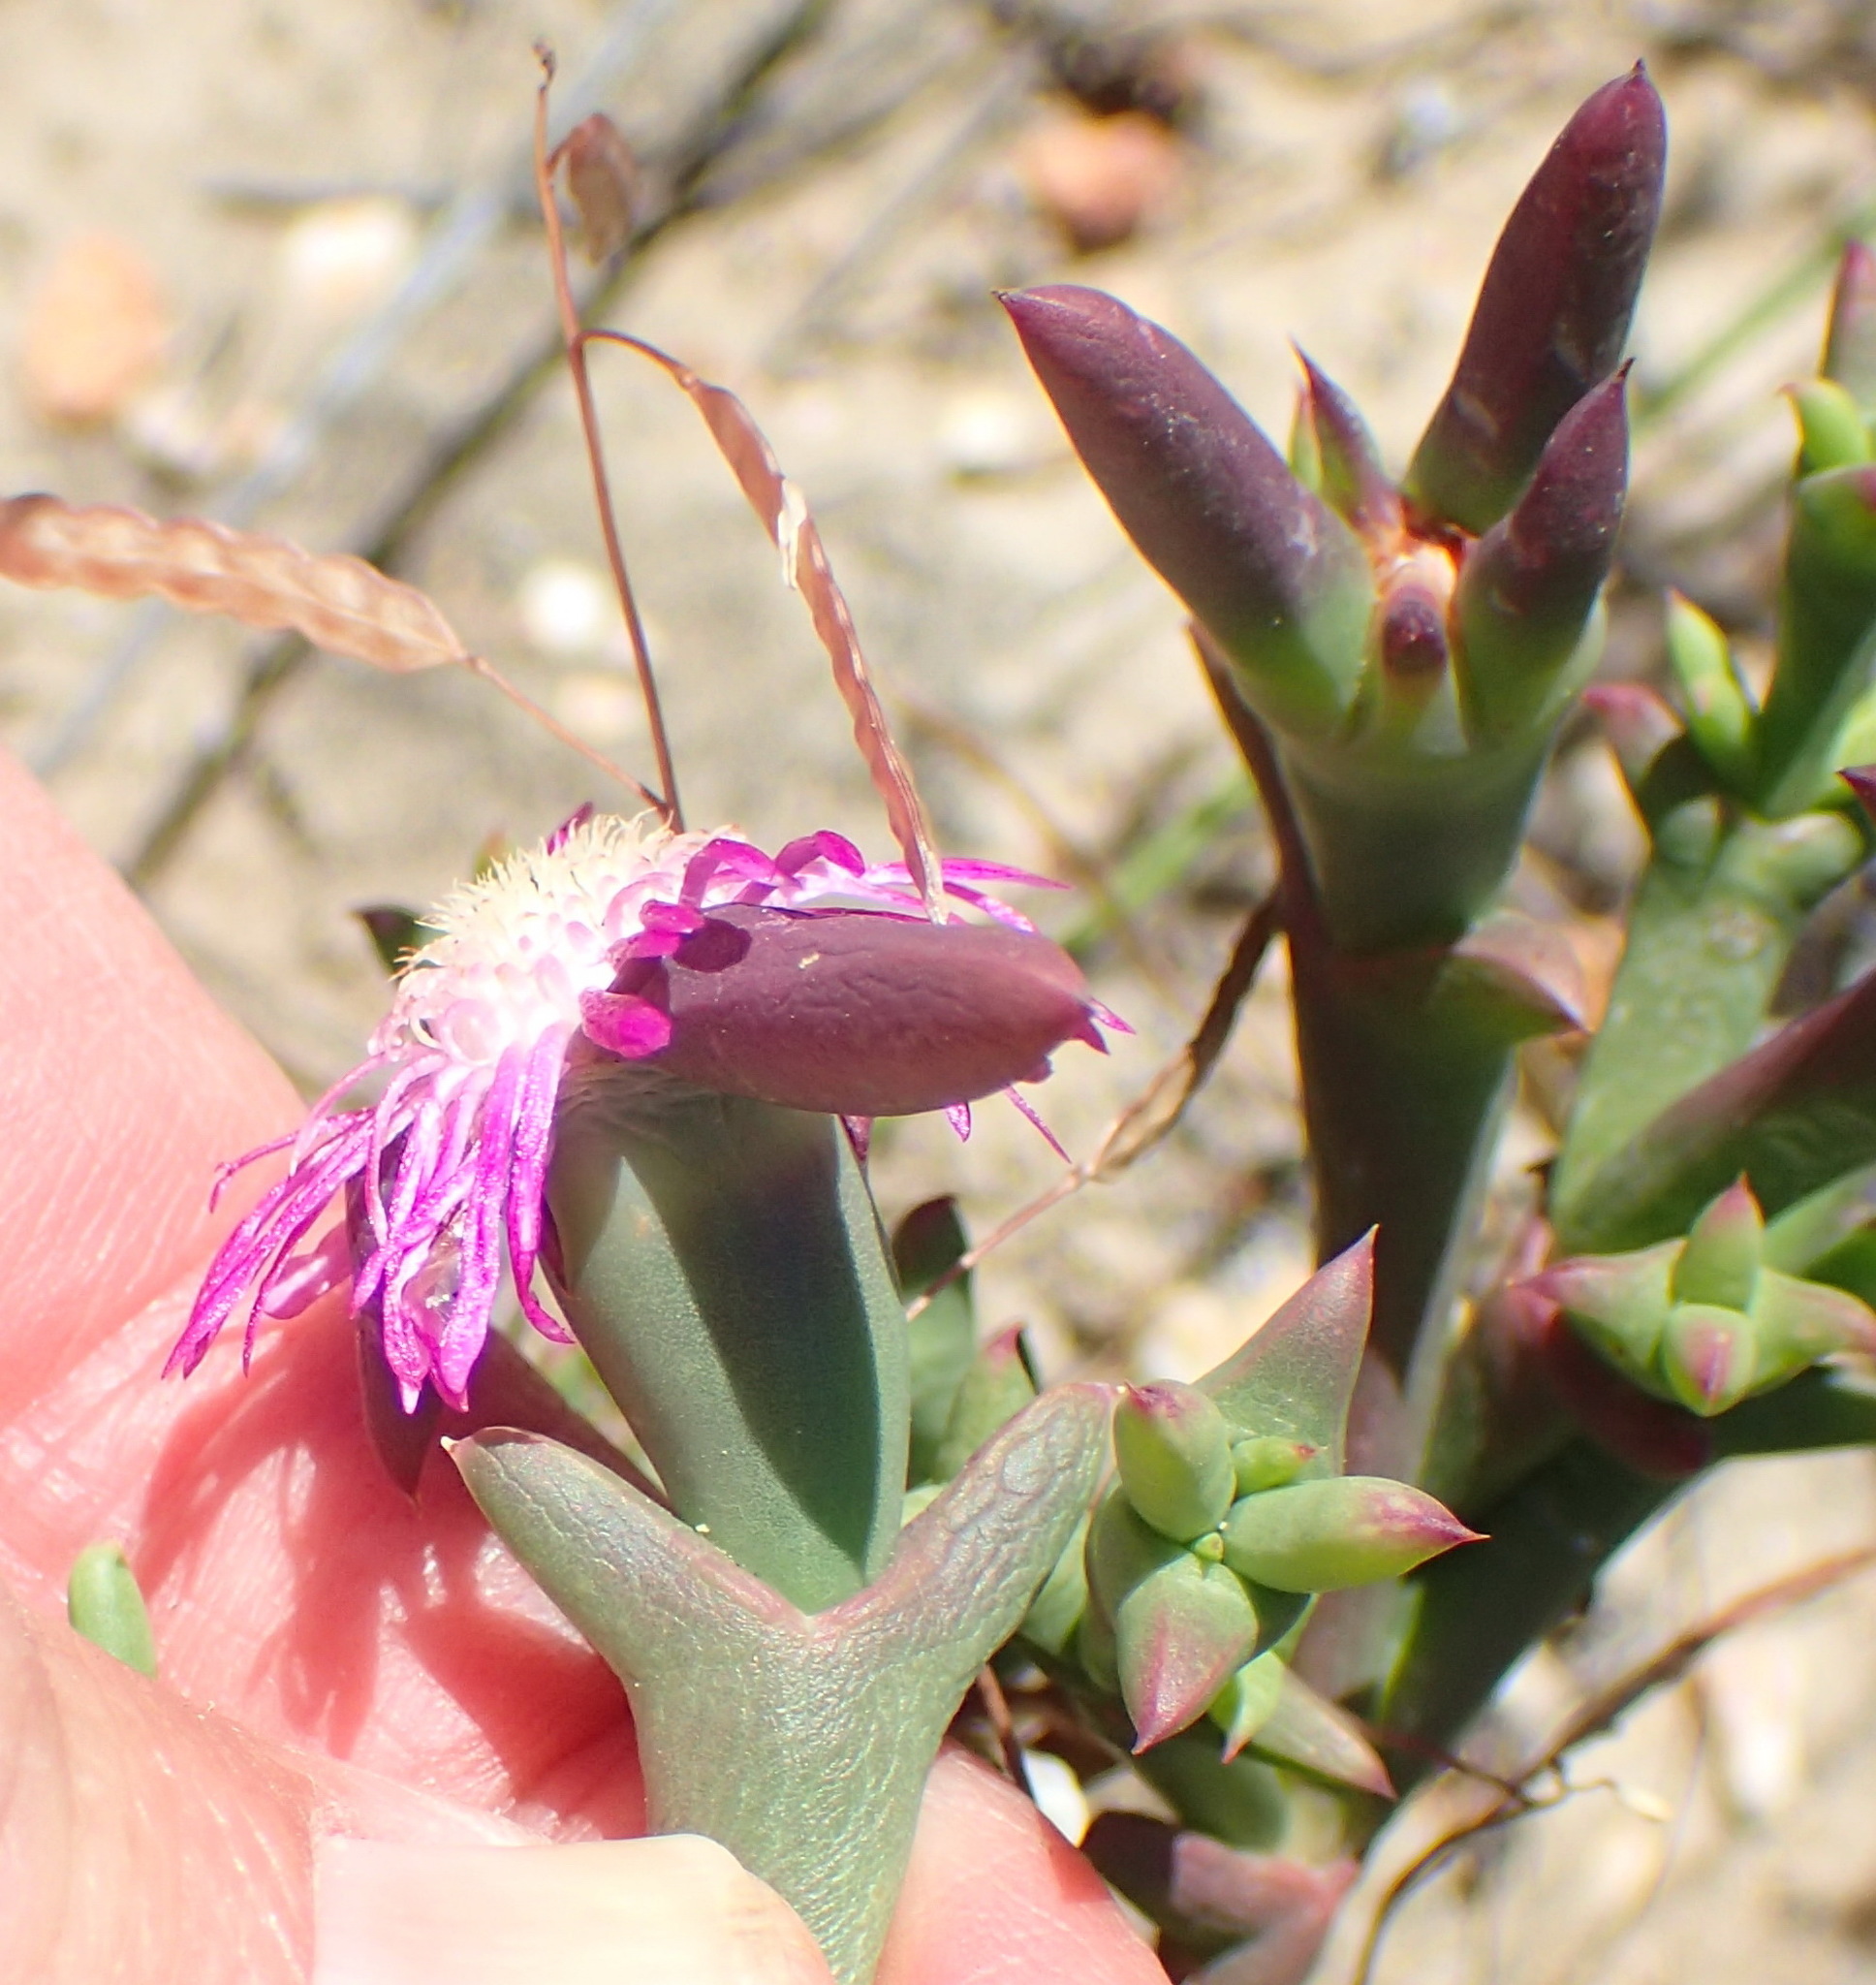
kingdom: Plantae
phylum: Tracheophyta
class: Magnoliopsida
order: Caryophyllales
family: Aizoaceae
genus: Smicrostigma
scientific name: Smicrostigma viride
